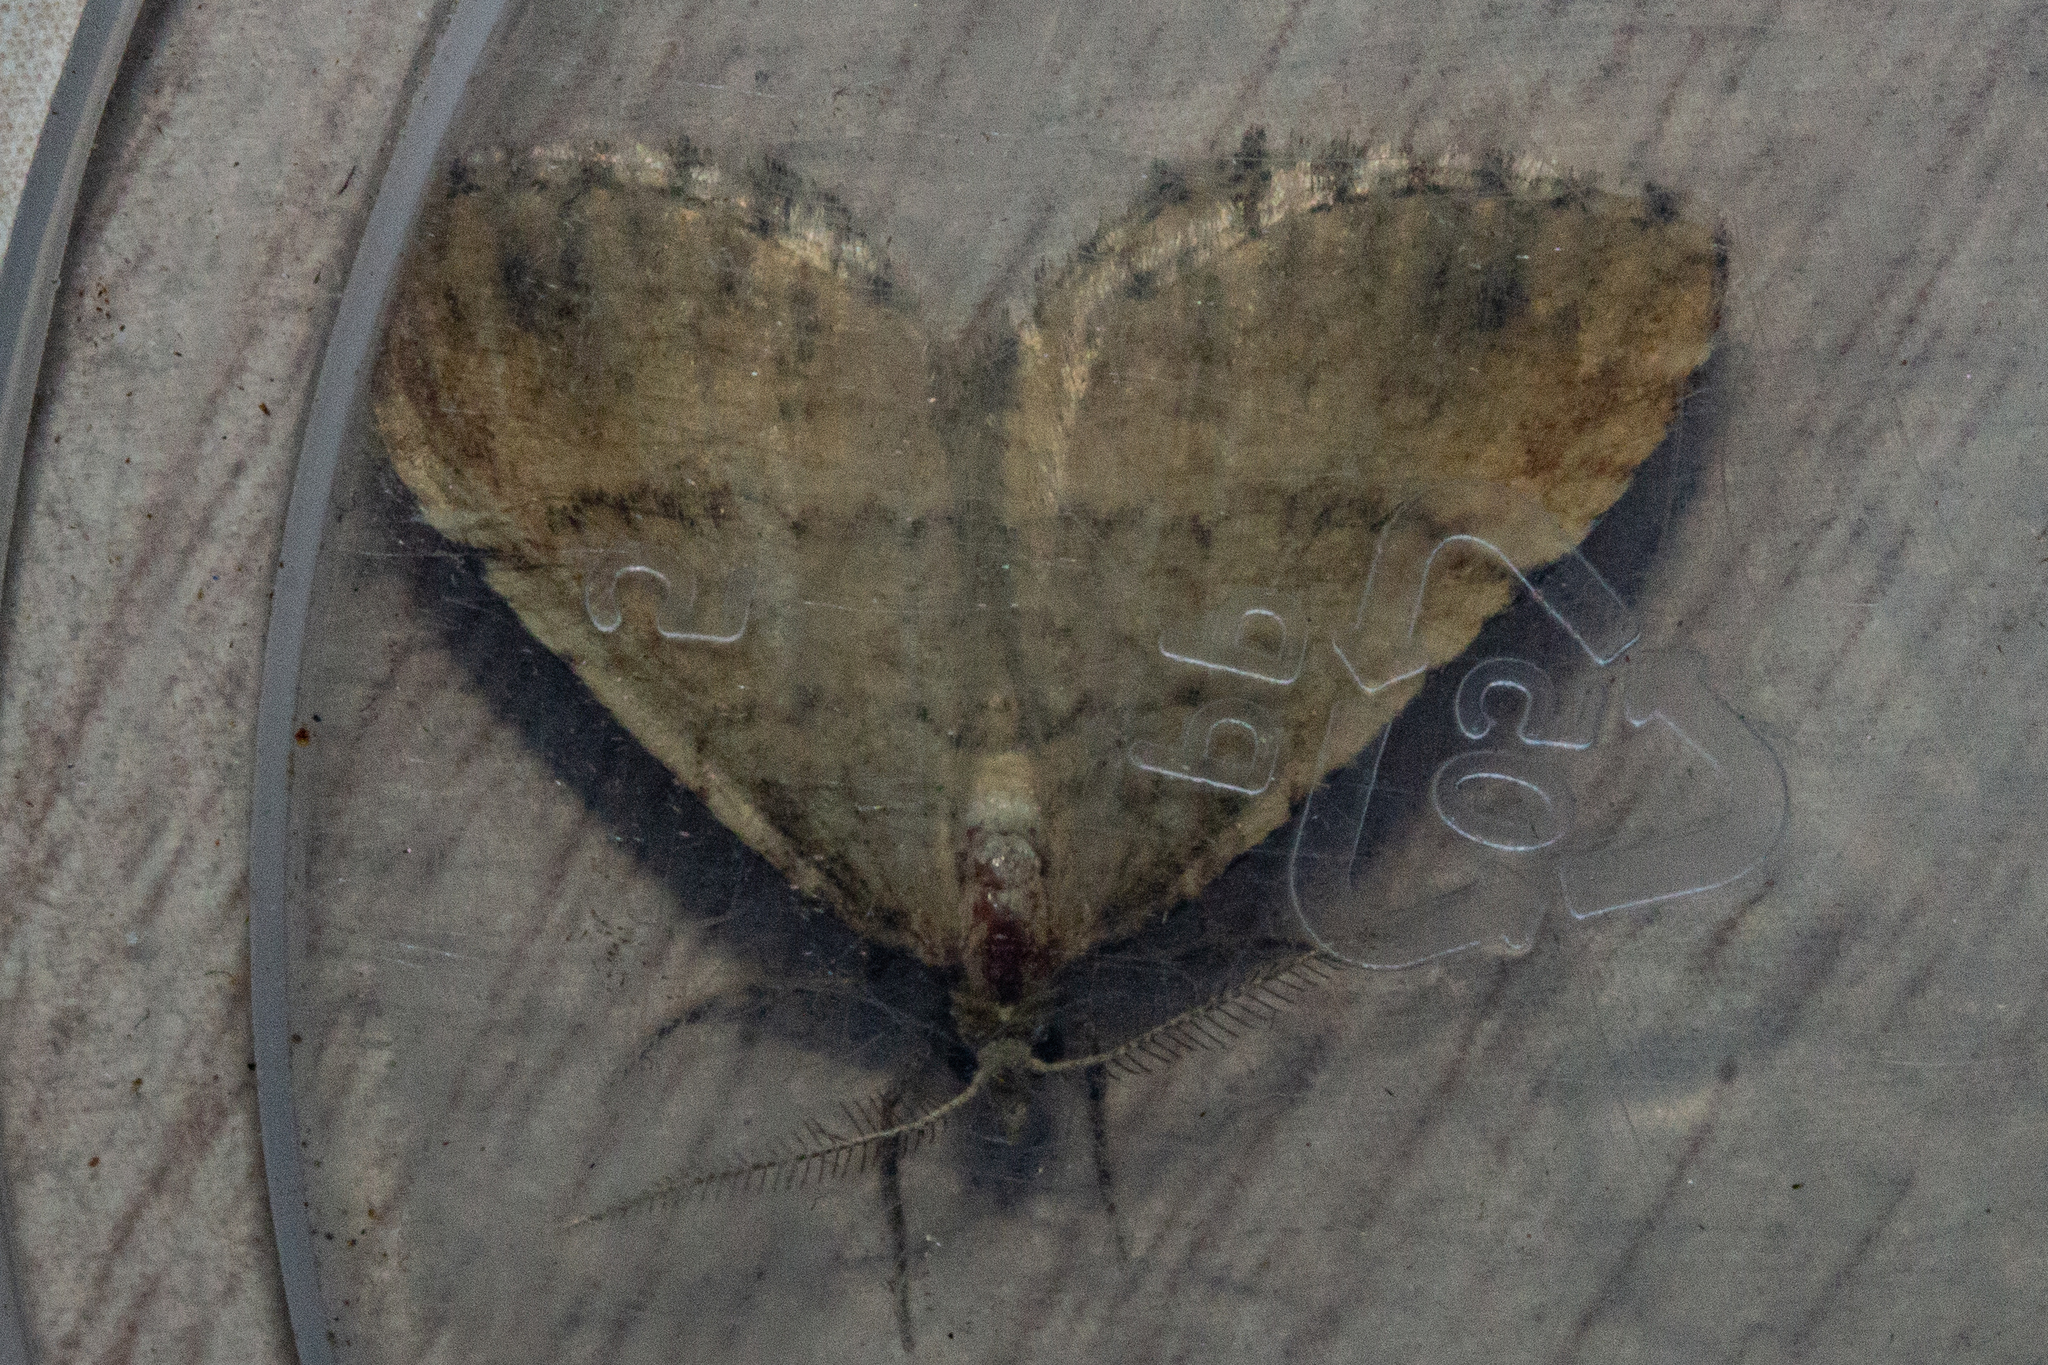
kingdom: Animalia
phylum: Arthropoda
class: Insecta
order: Lepidoptera
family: Geometridae
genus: Asaphodes
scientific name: Asaphodes aegrota
